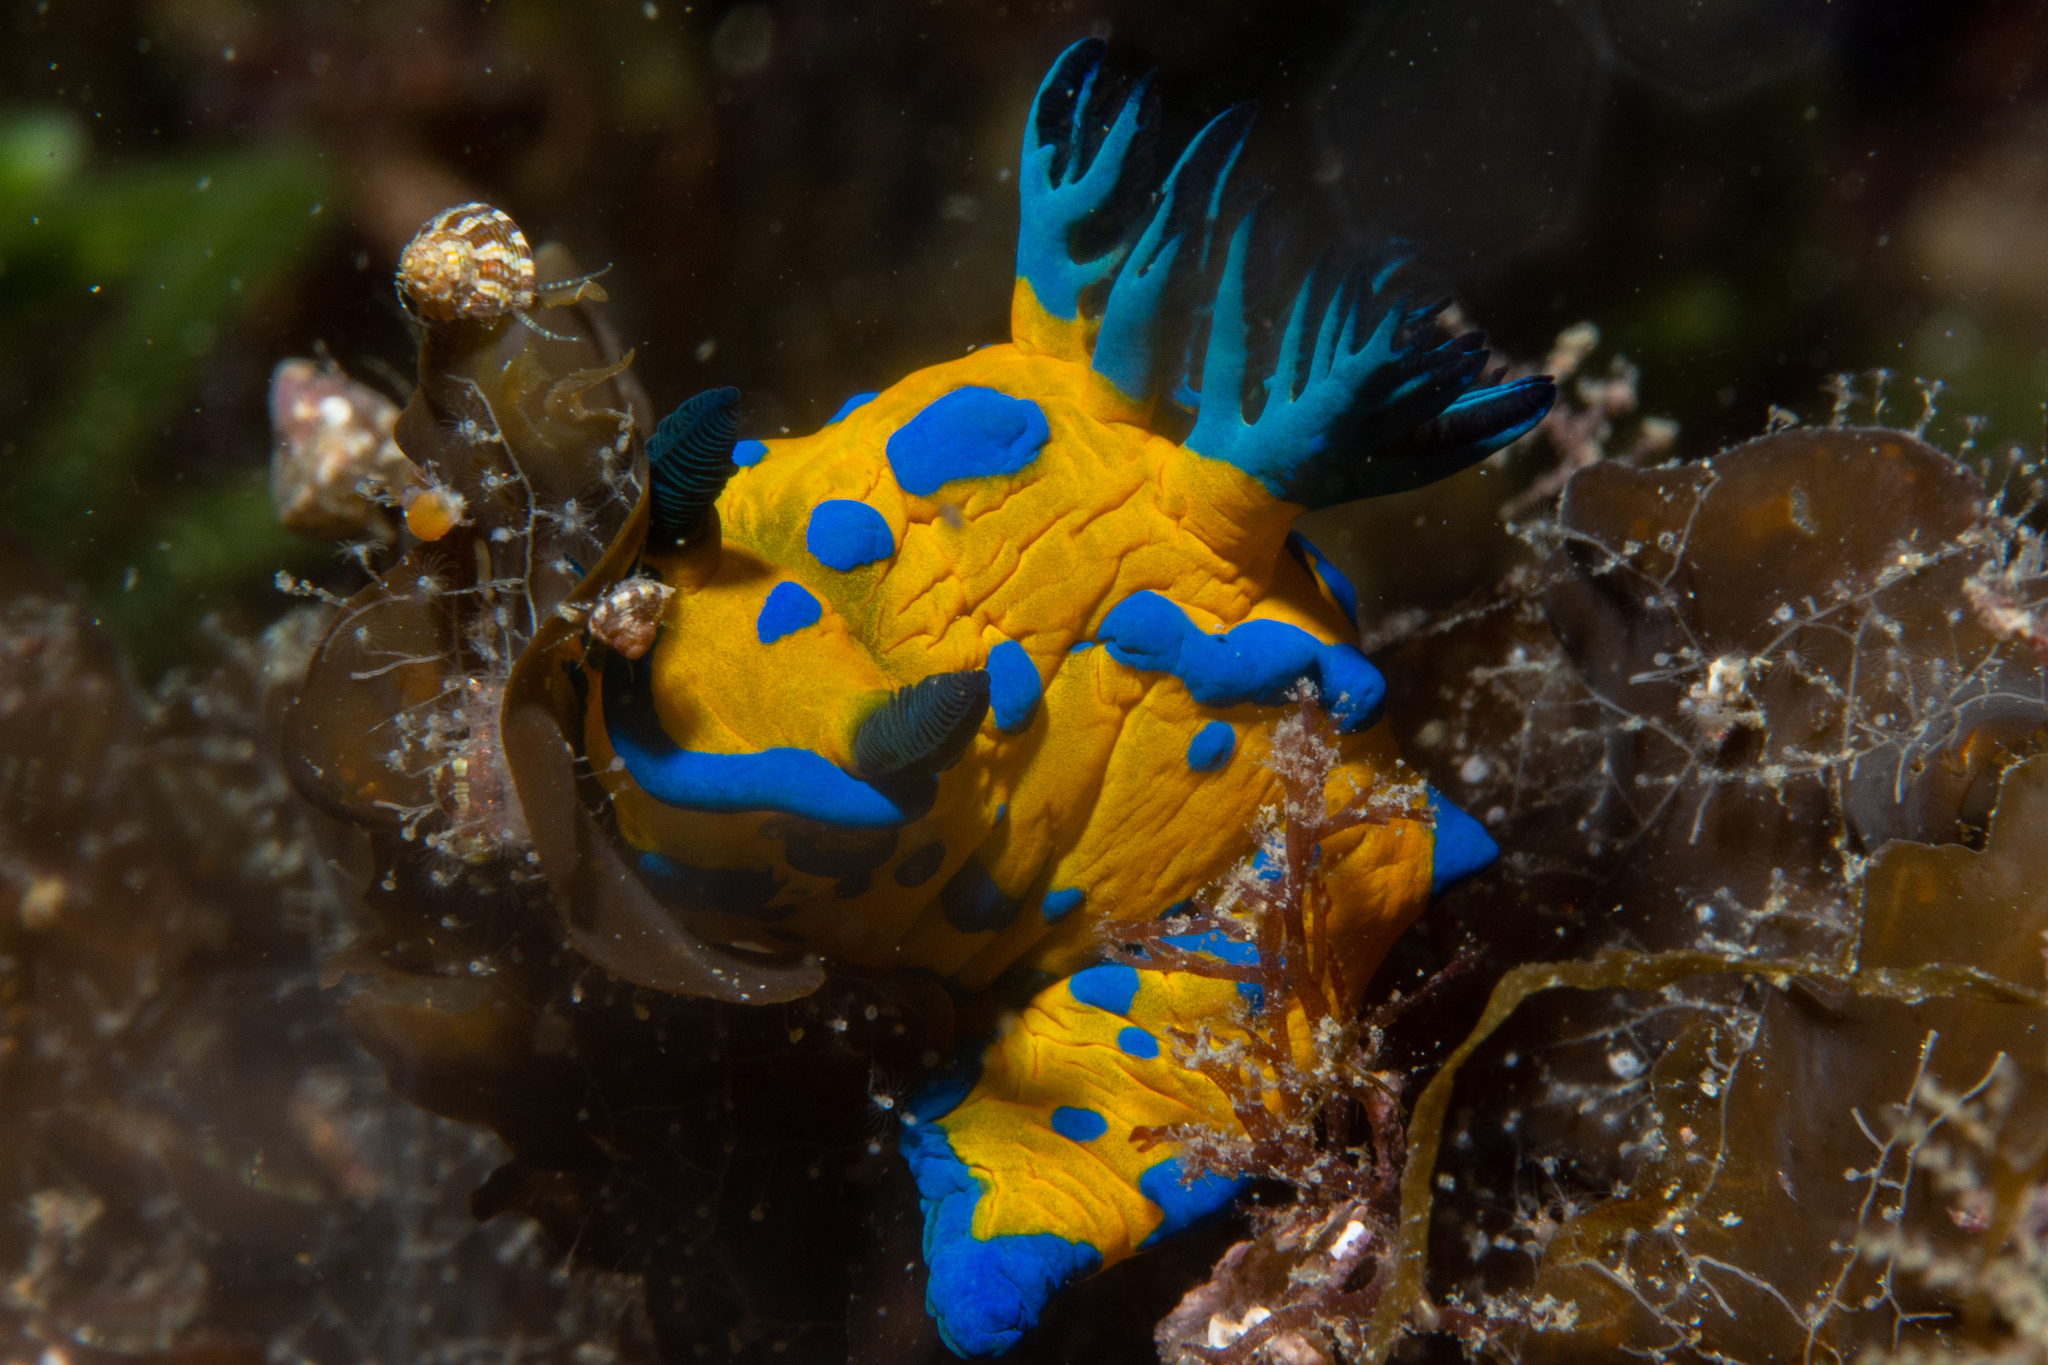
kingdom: Animalia
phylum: Mollusca
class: Gastropoda
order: Nudibranchia
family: Polyceridae
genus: Tambja
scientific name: Tambja verconis
